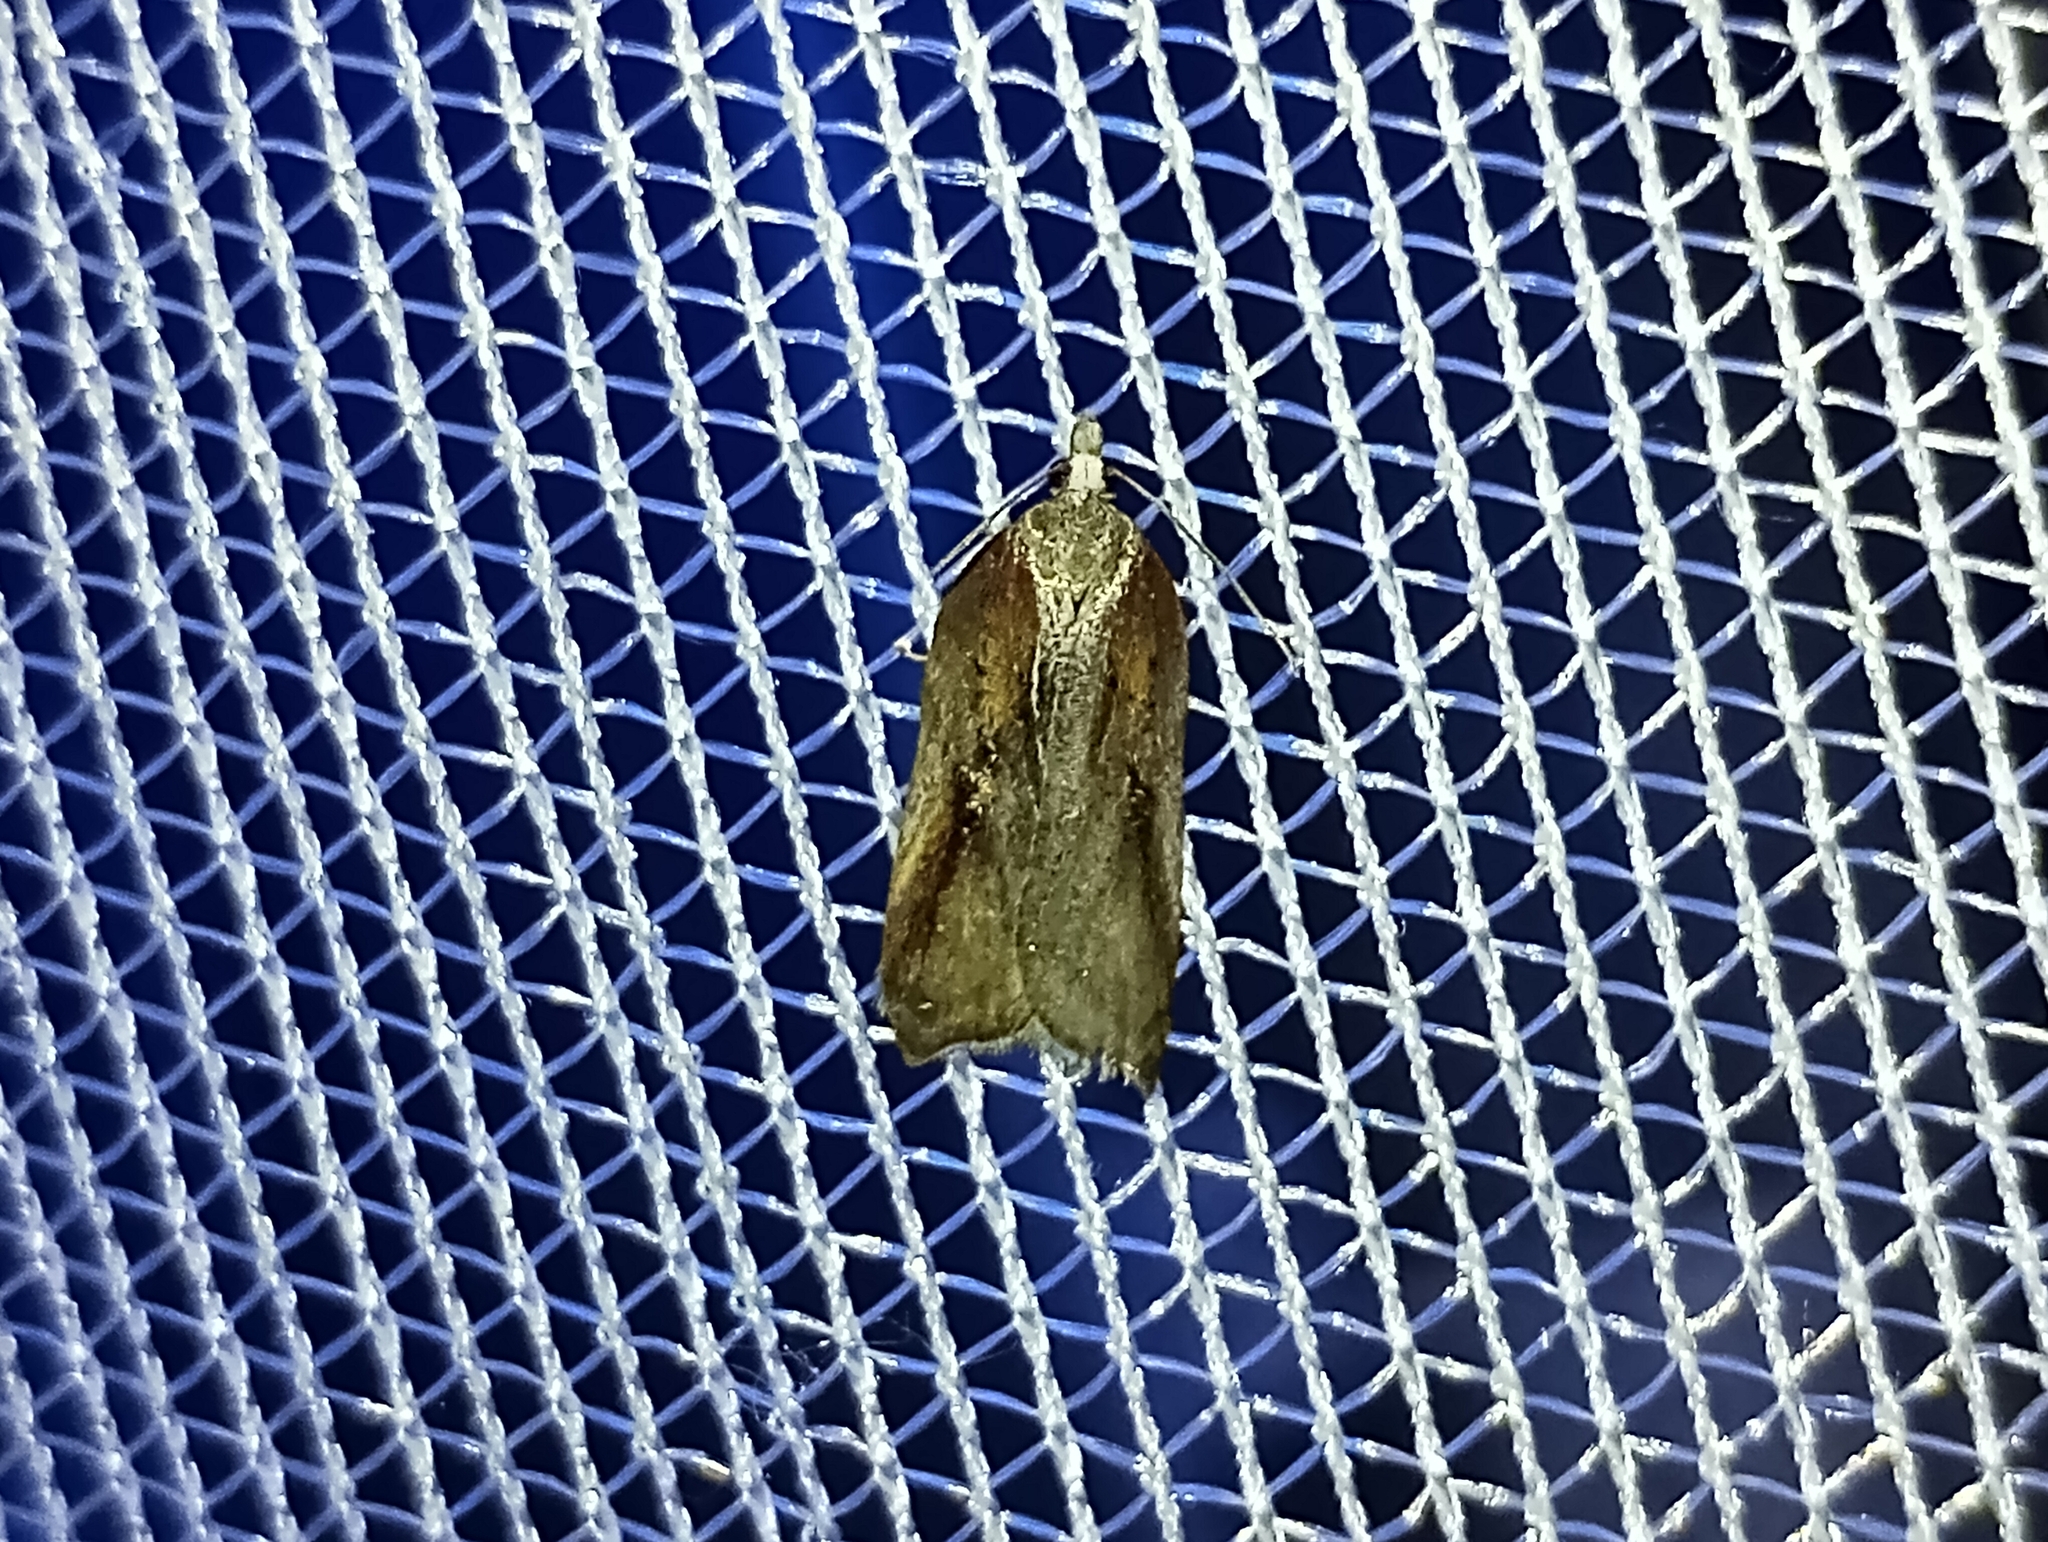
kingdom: Animalia
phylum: Arthropoda
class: Insecta
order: Lepidoptera
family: Tortricidae
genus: Acleris
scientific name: Acleris cristana
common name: Tufted button
